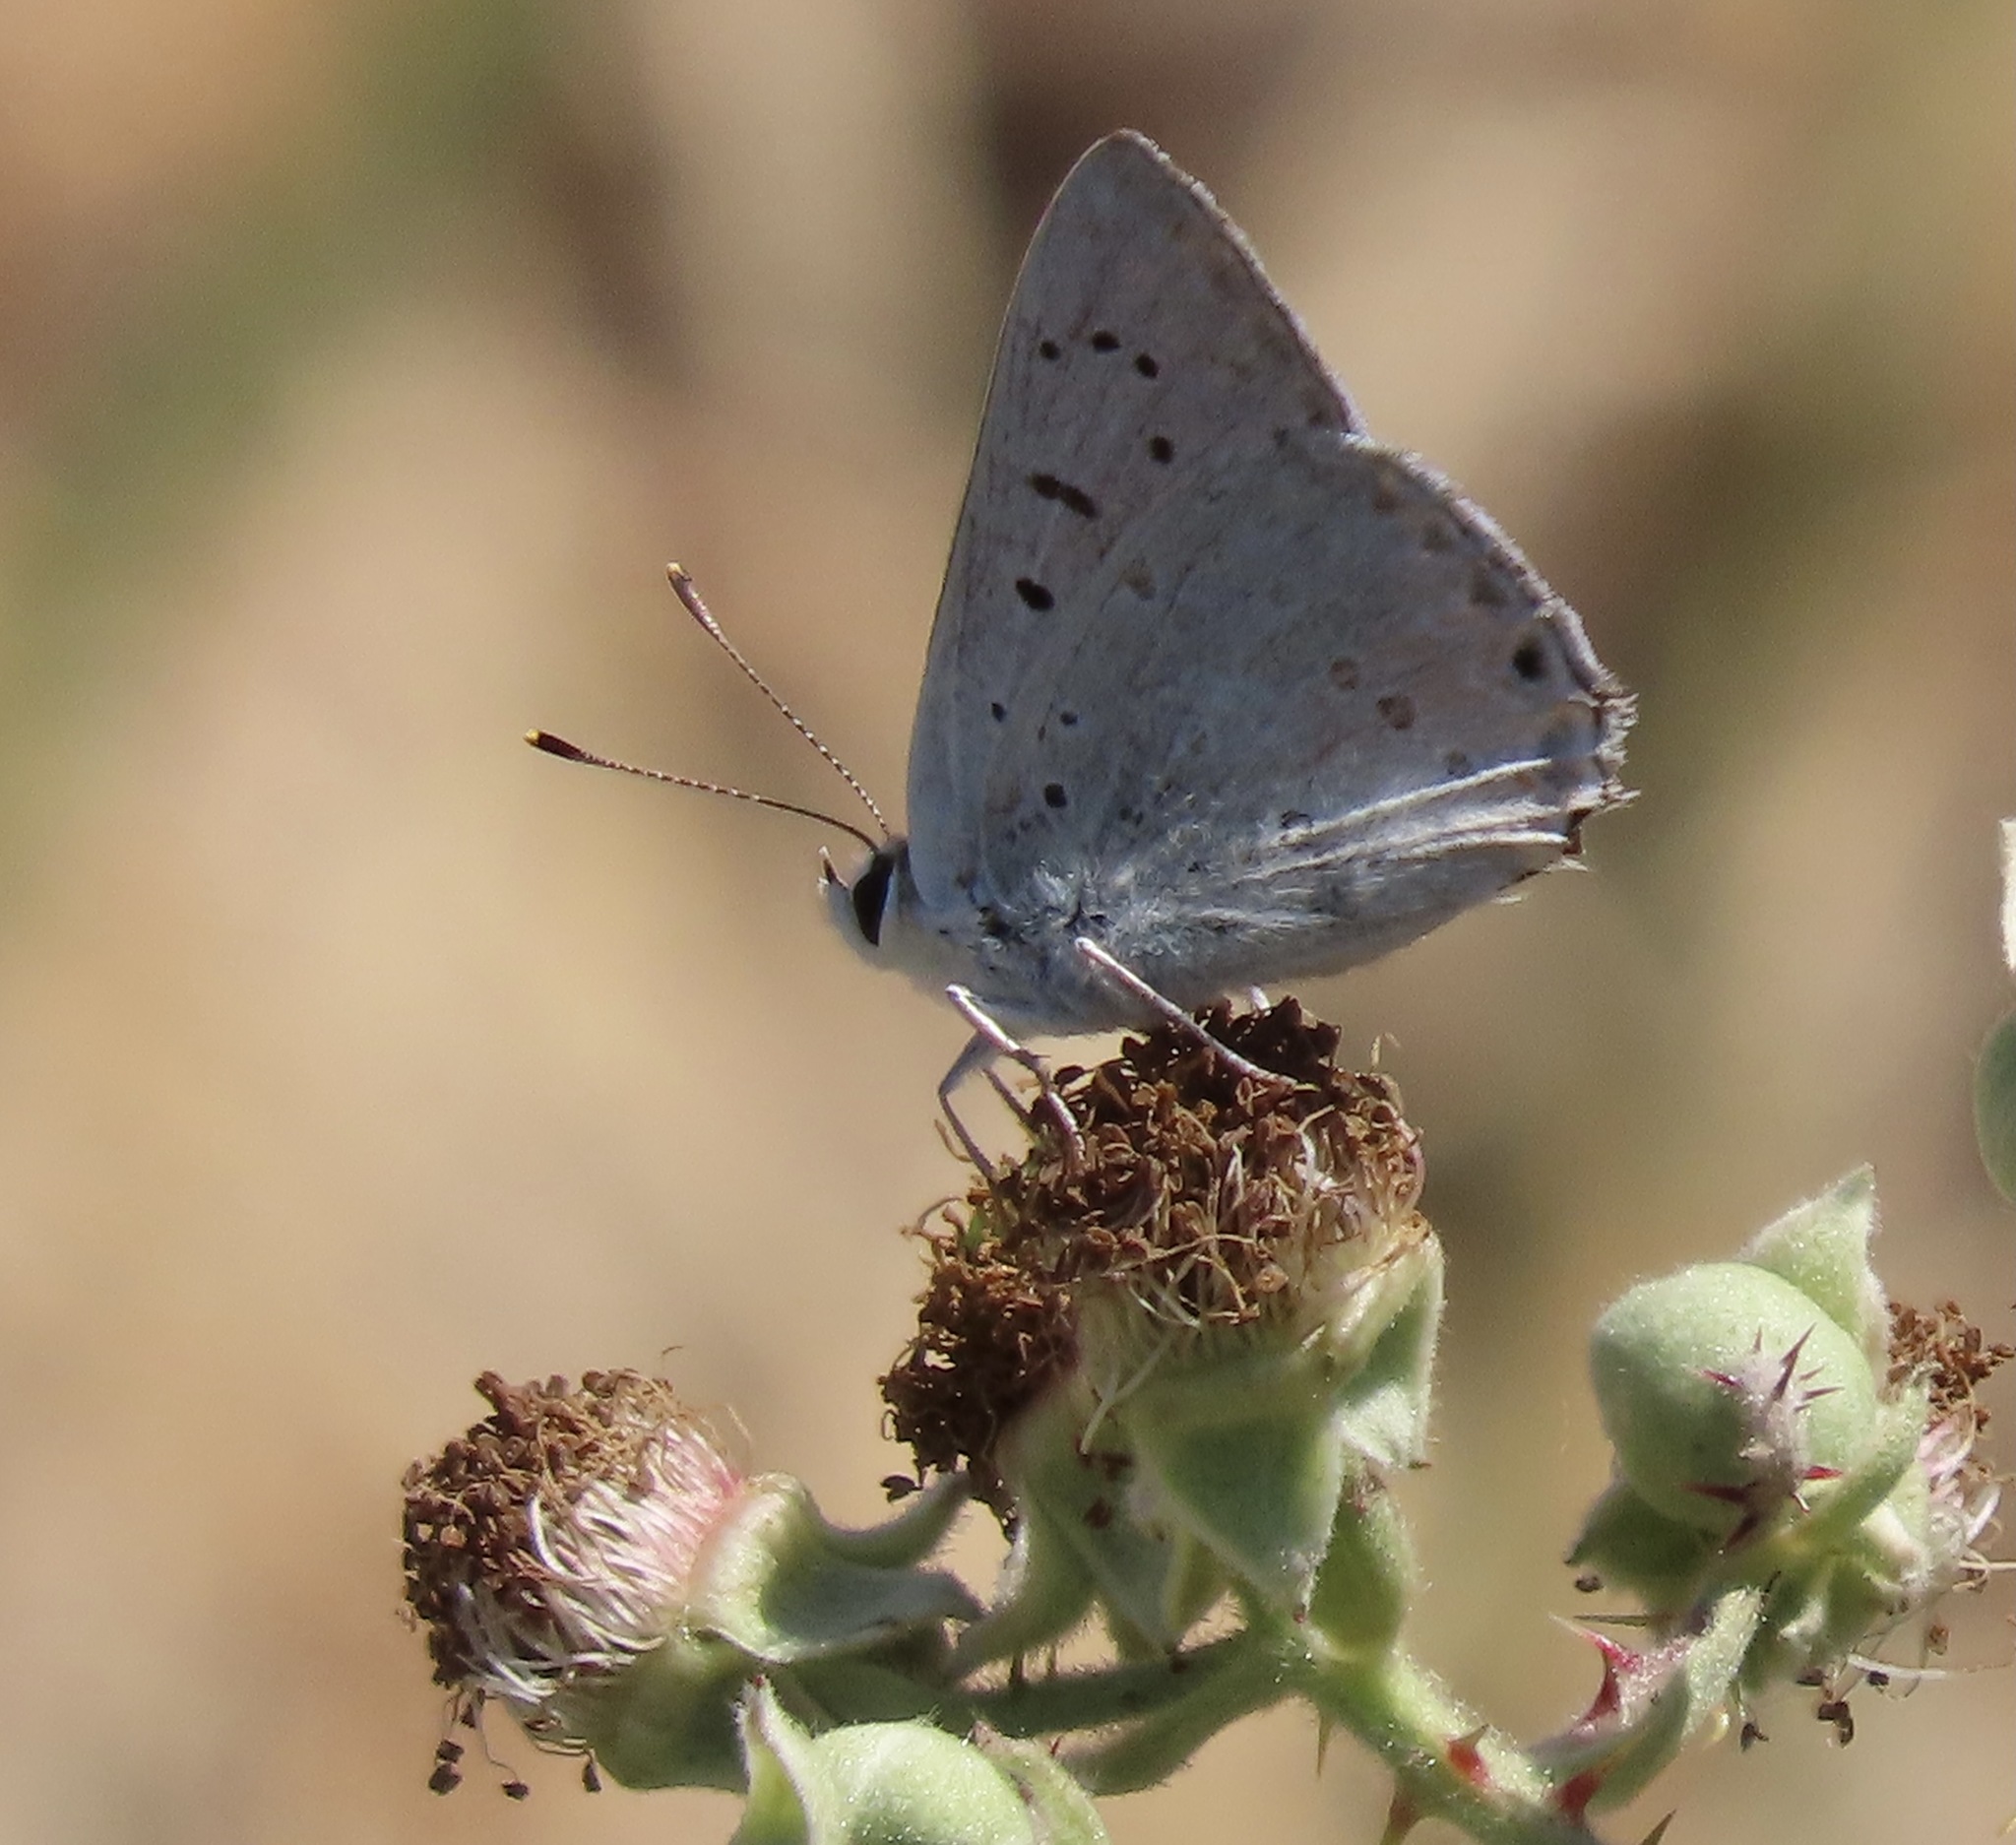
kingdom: Animalia
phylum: Arthropoda
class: Insecta
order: Lepidoptera
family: Lycaenidae
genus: Tharsalea
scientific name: Tharsalea xanthoides
